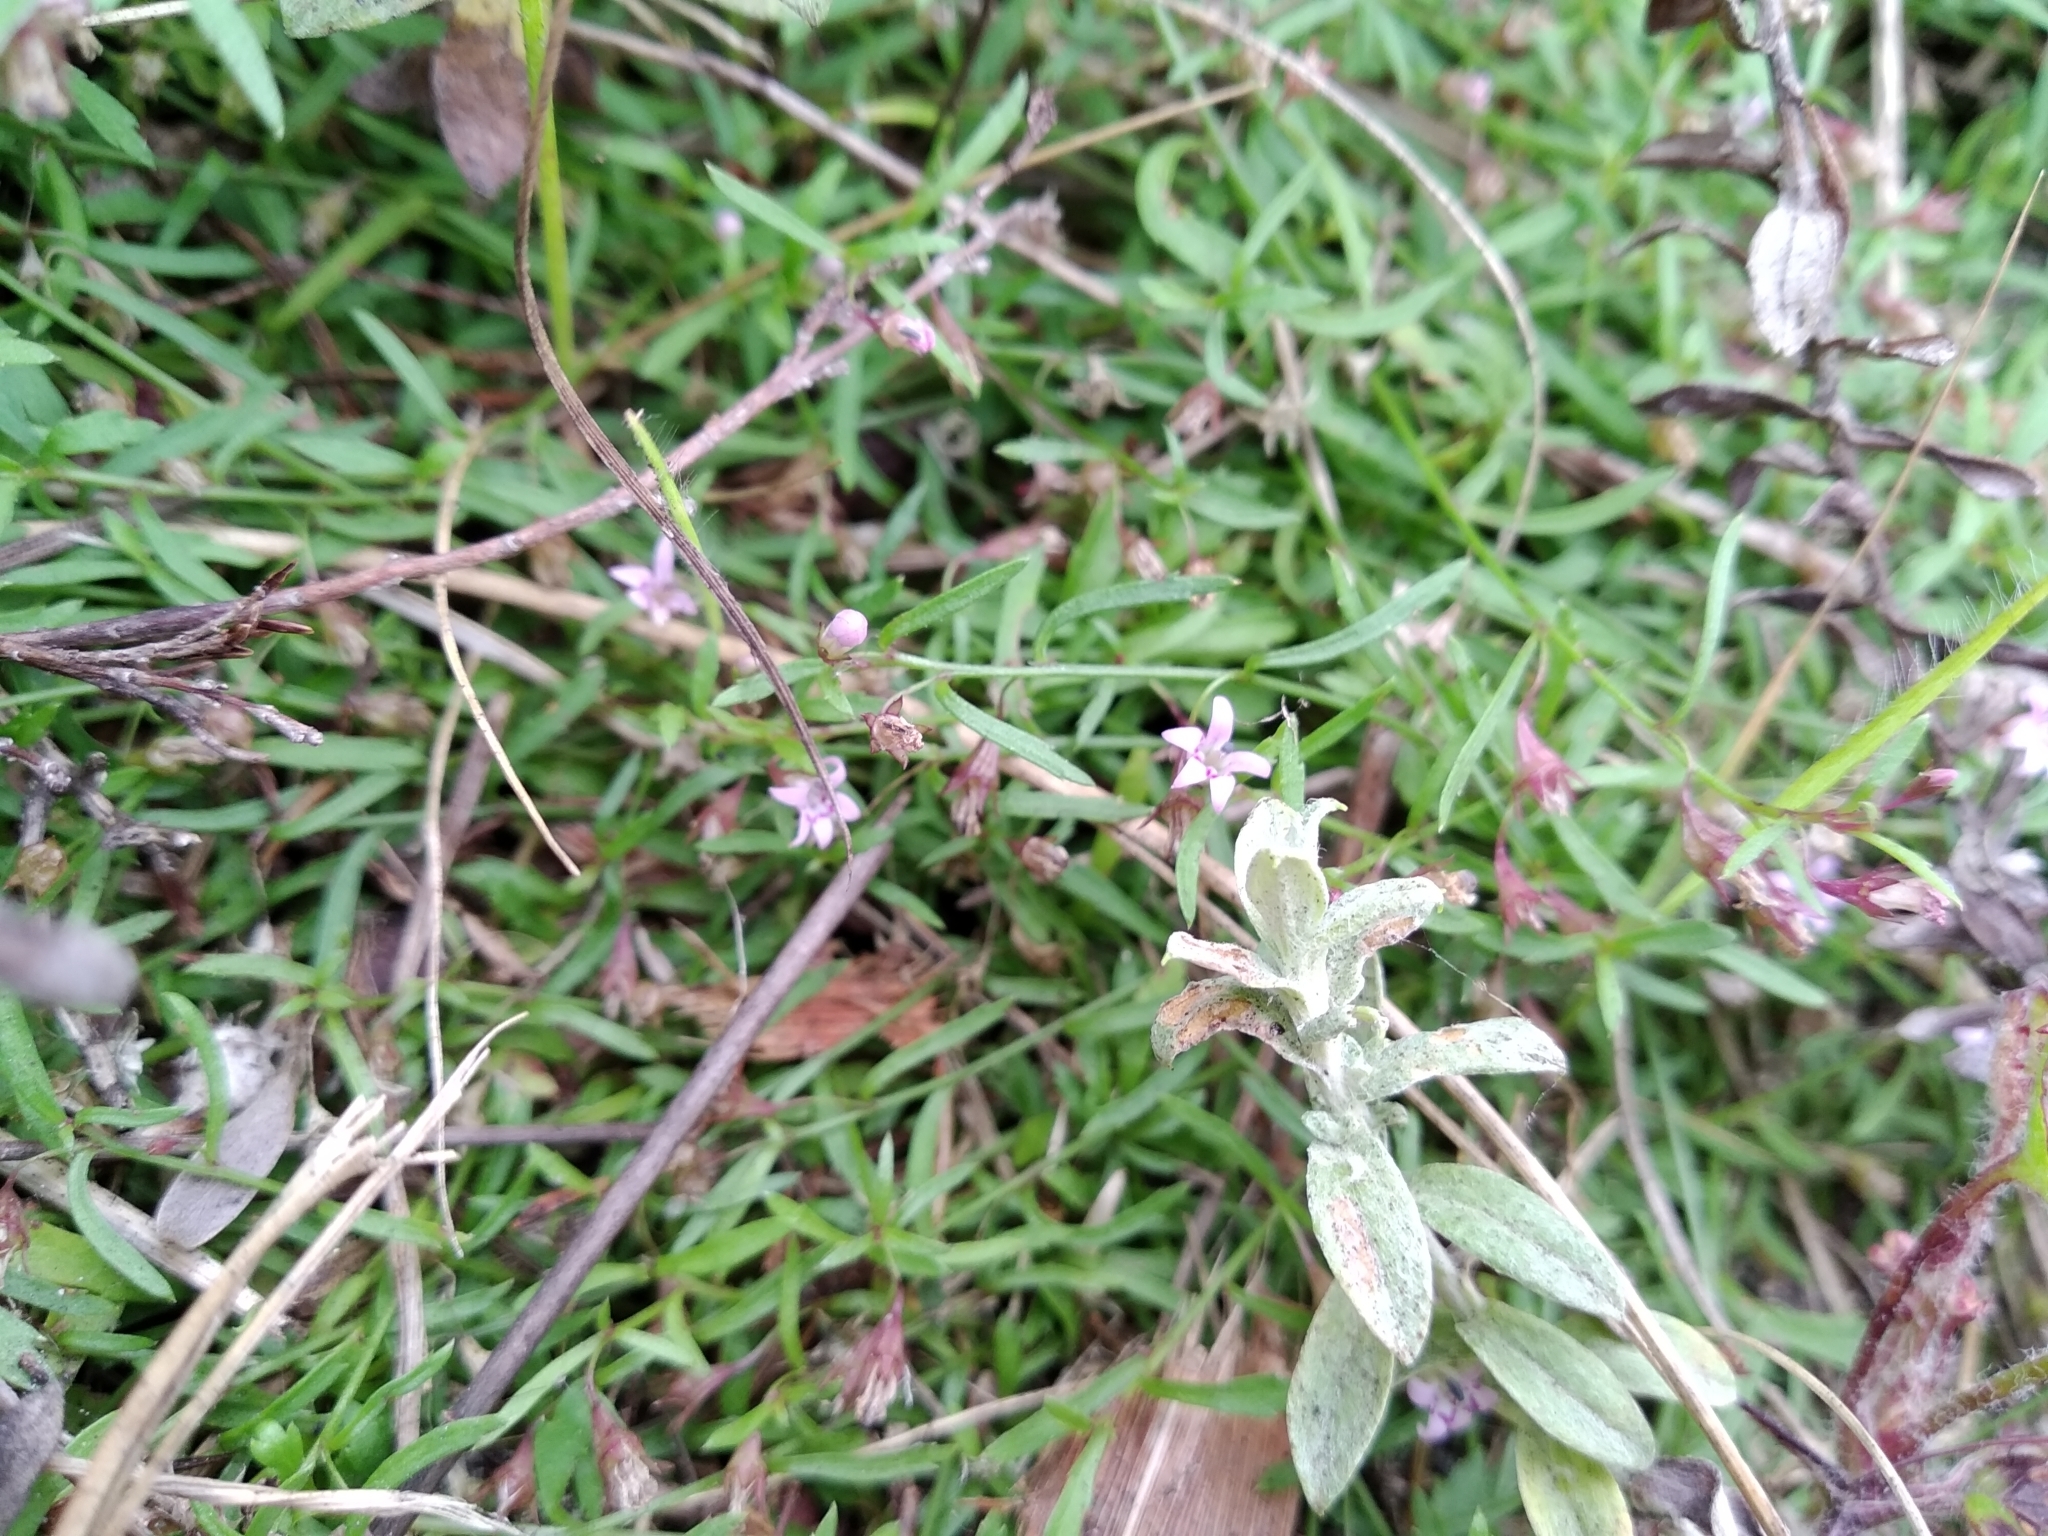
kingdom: Plantae
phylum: Tracheophyta
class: Magnoliopsida
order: Asterales
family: Campanulaceae
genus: Lobelia
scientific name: Lobelia eckloniana
